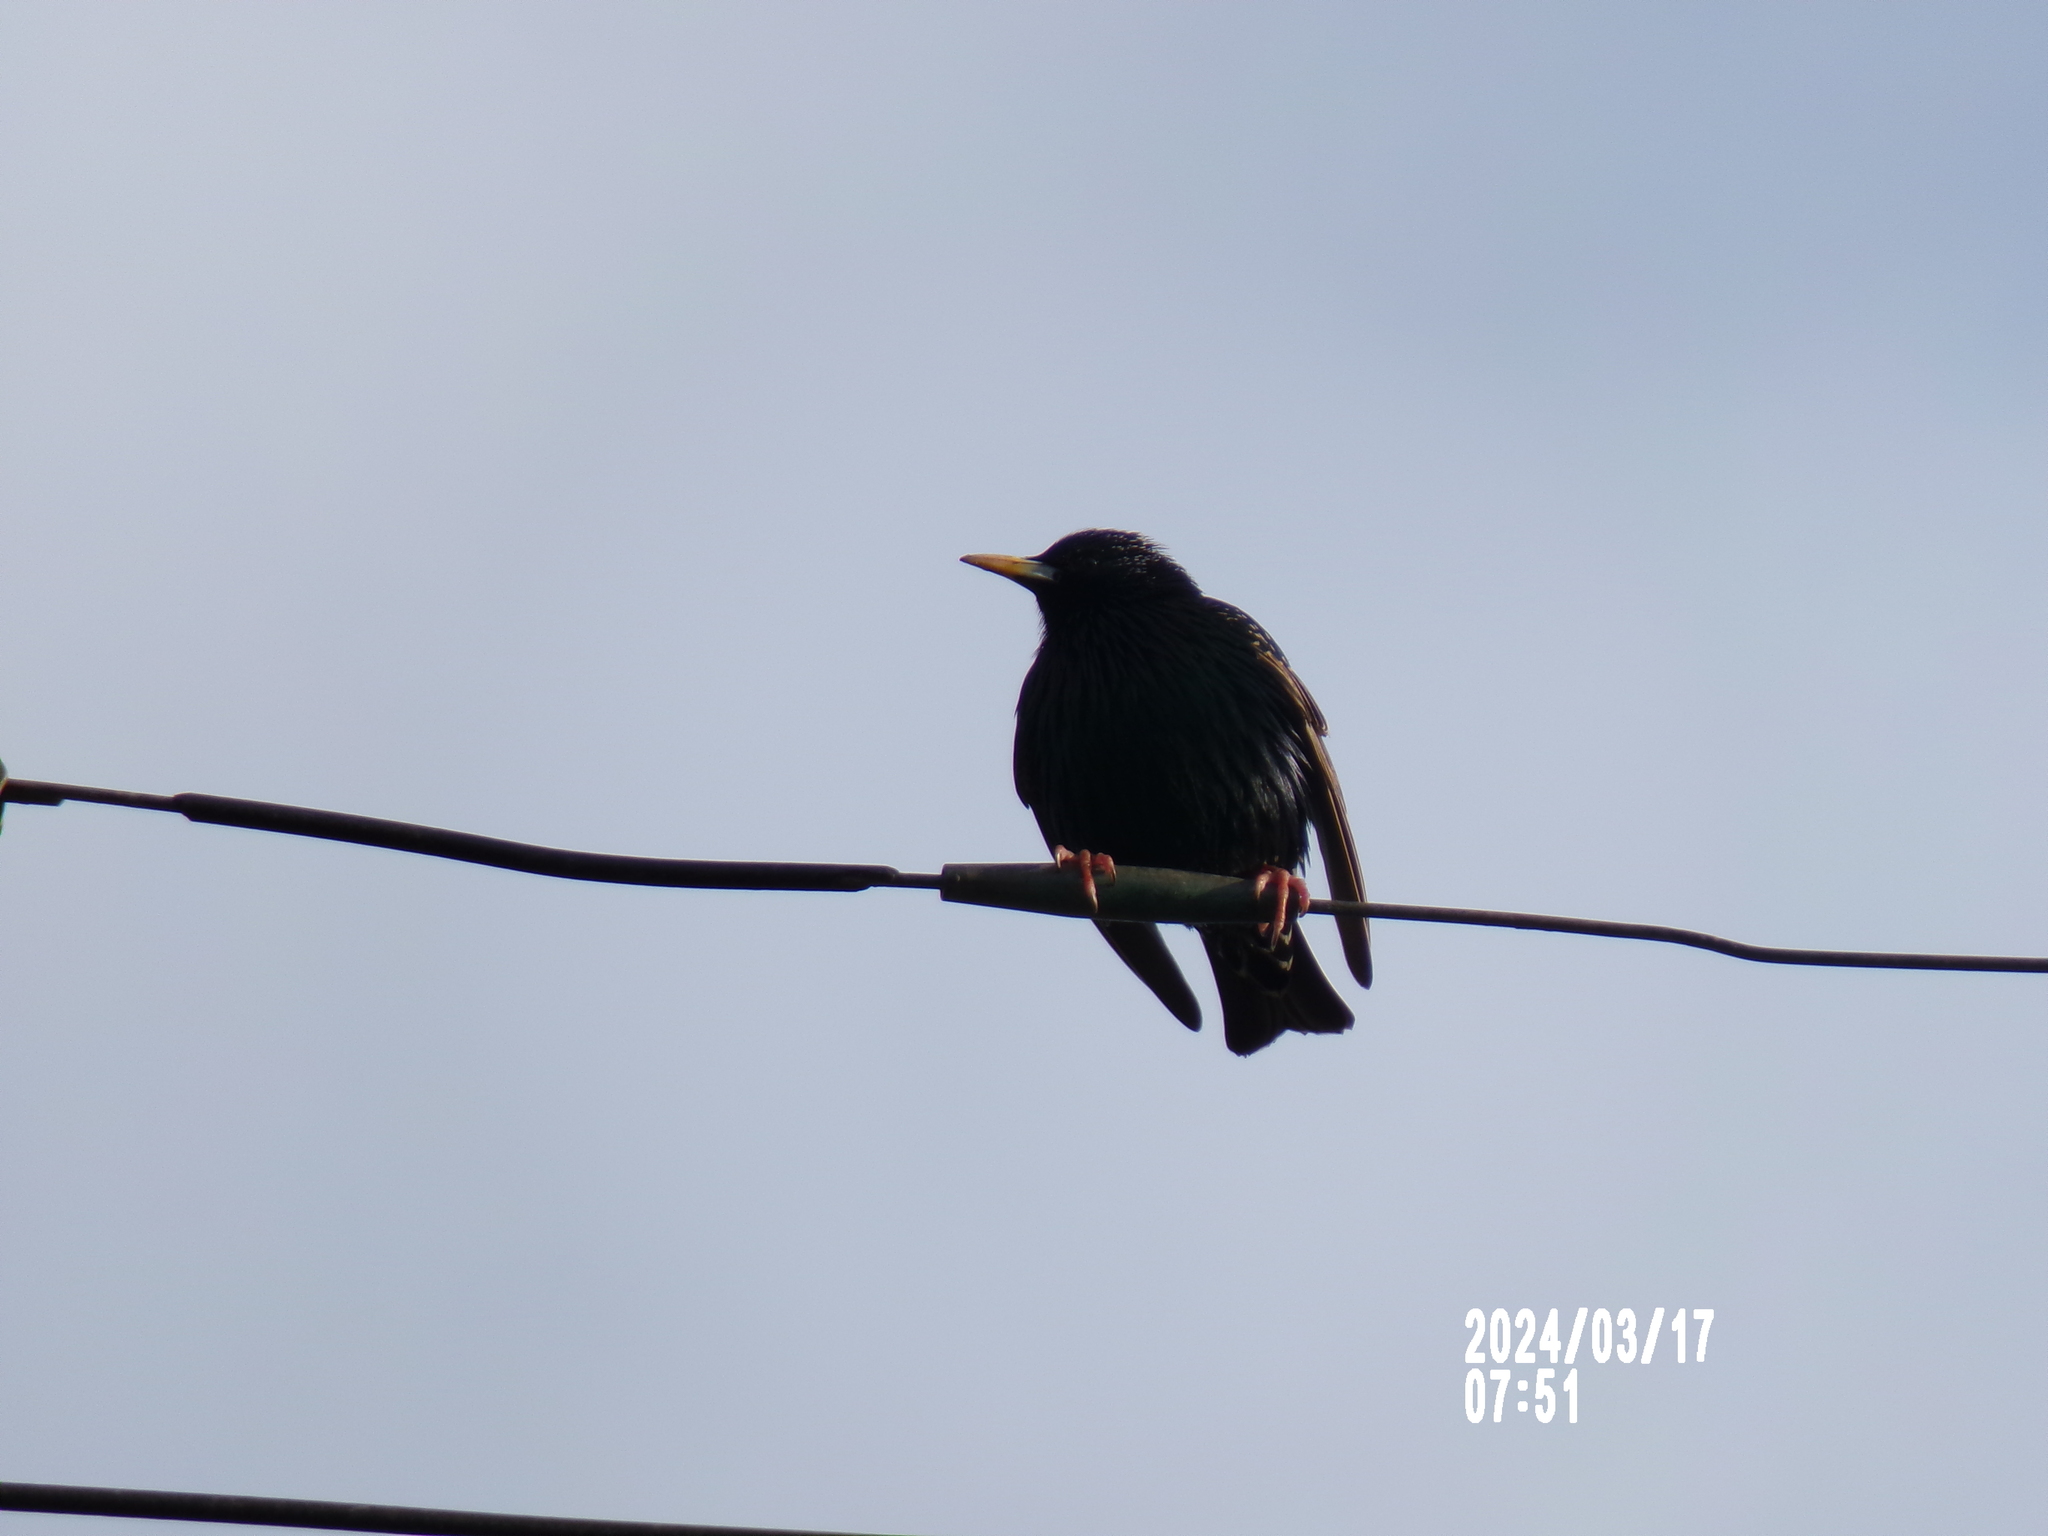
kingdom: Animalia
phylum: Chordata
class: Aves
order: Passeriformes
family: Sturnidae
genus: Sturnus
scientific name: Sturnus vulgaris
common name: Common starling
